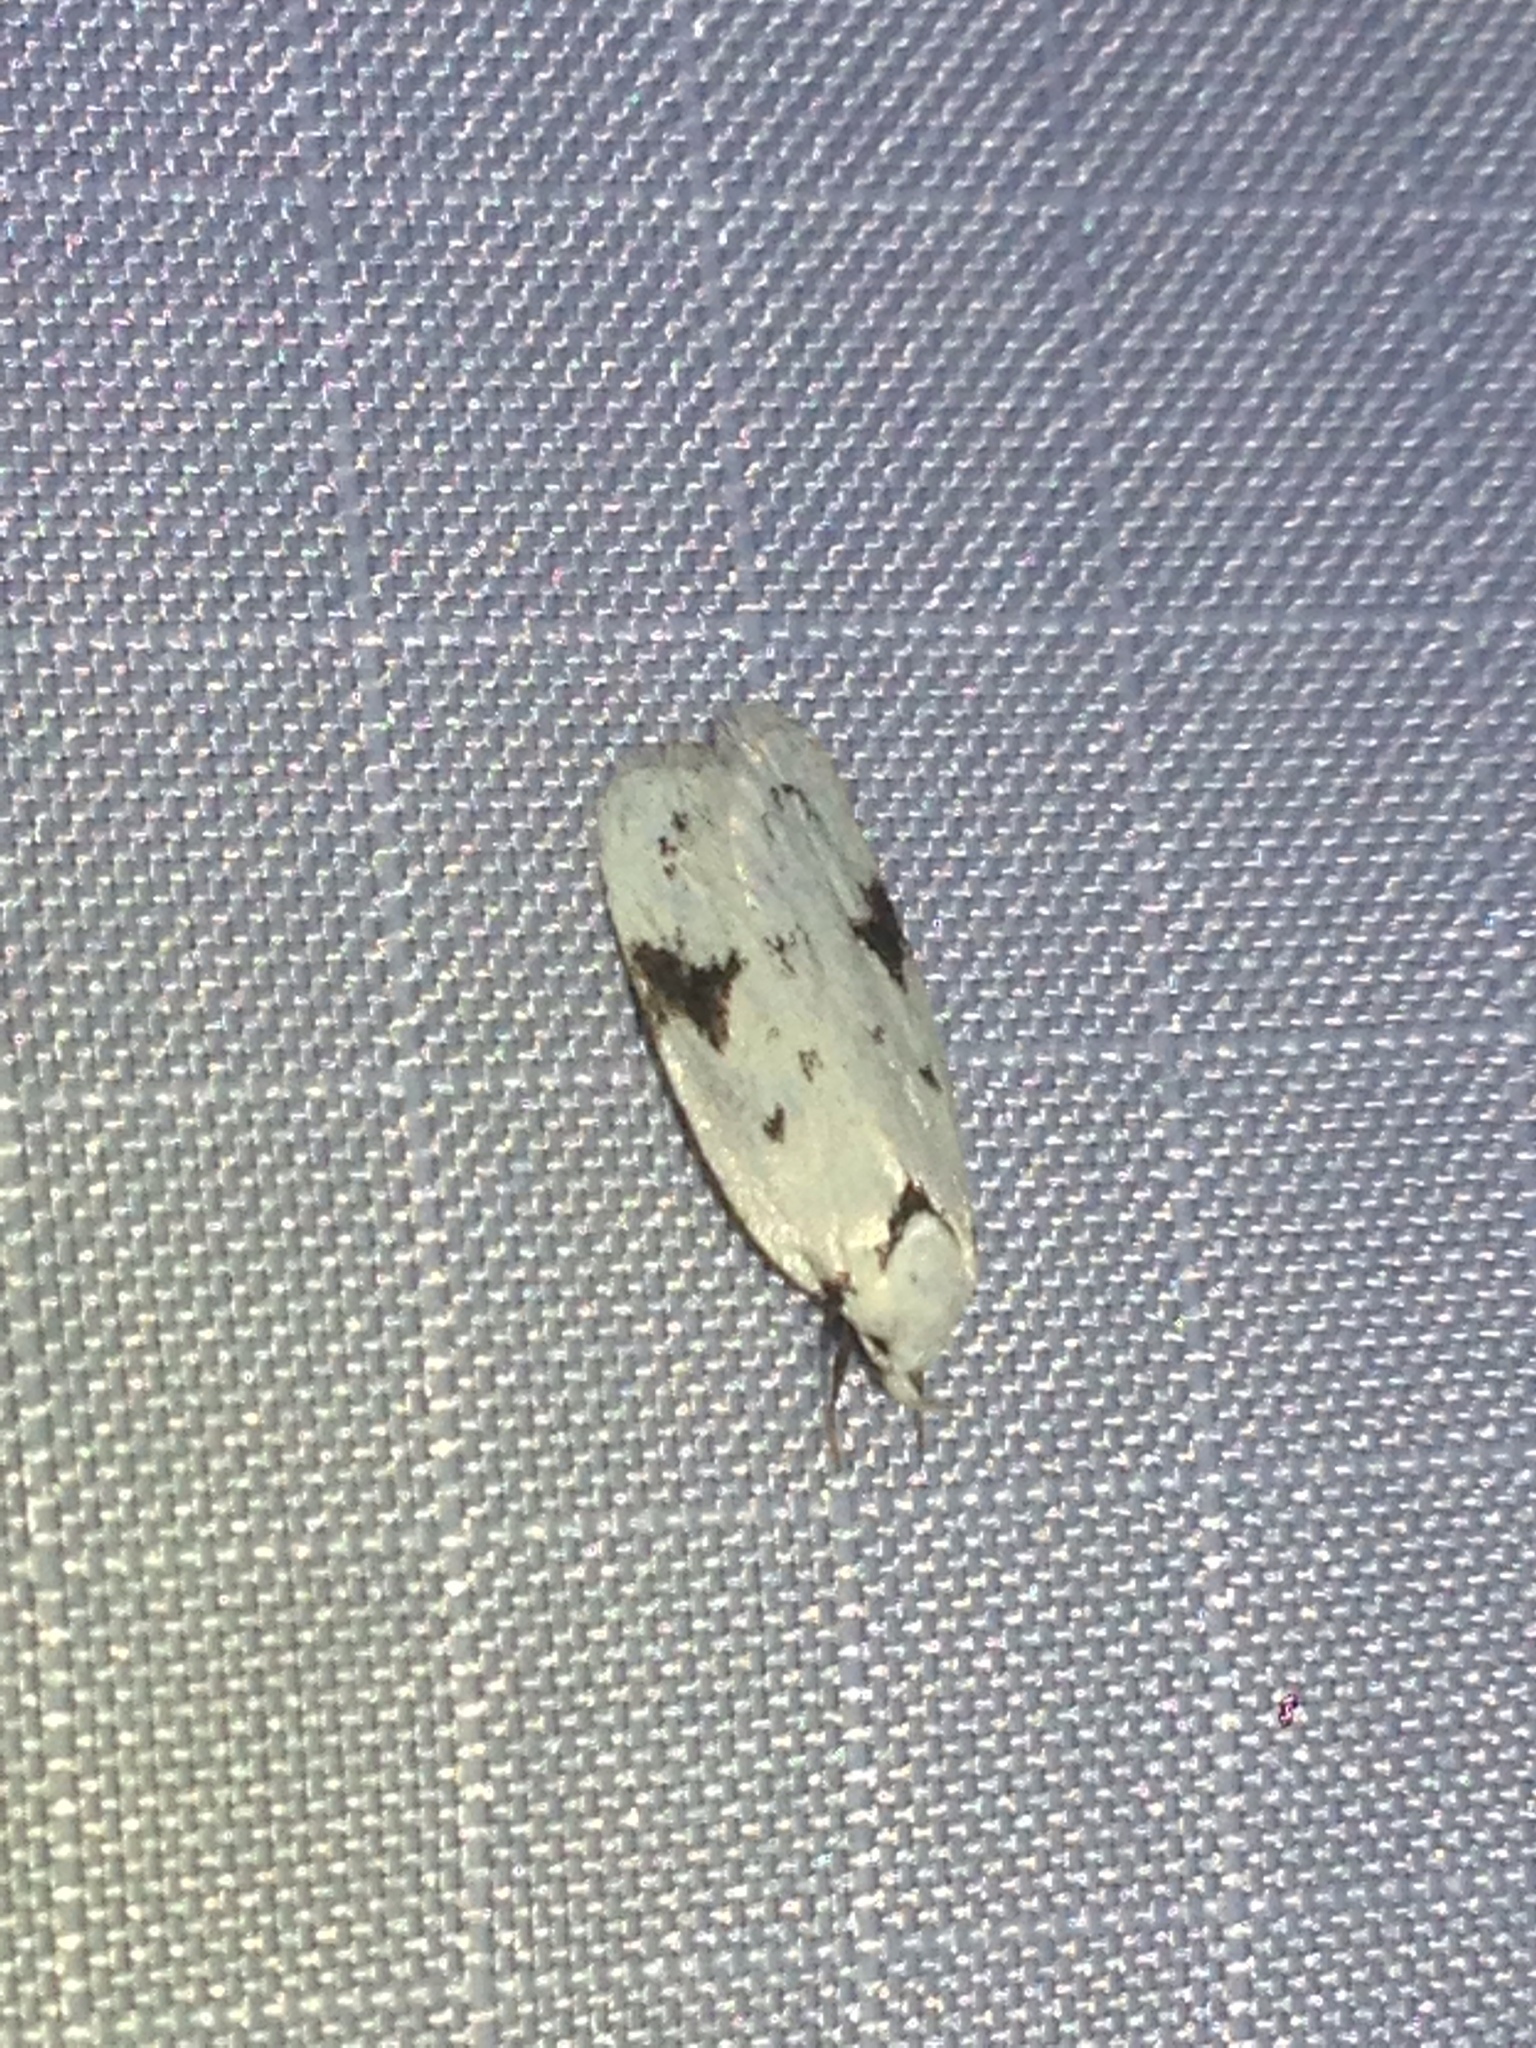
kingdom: Animalia
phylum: Arthropoda
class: Insecta
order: Lepidoptera
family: Oecophoridae
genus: Inga
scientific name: Inga sparsiciliella
